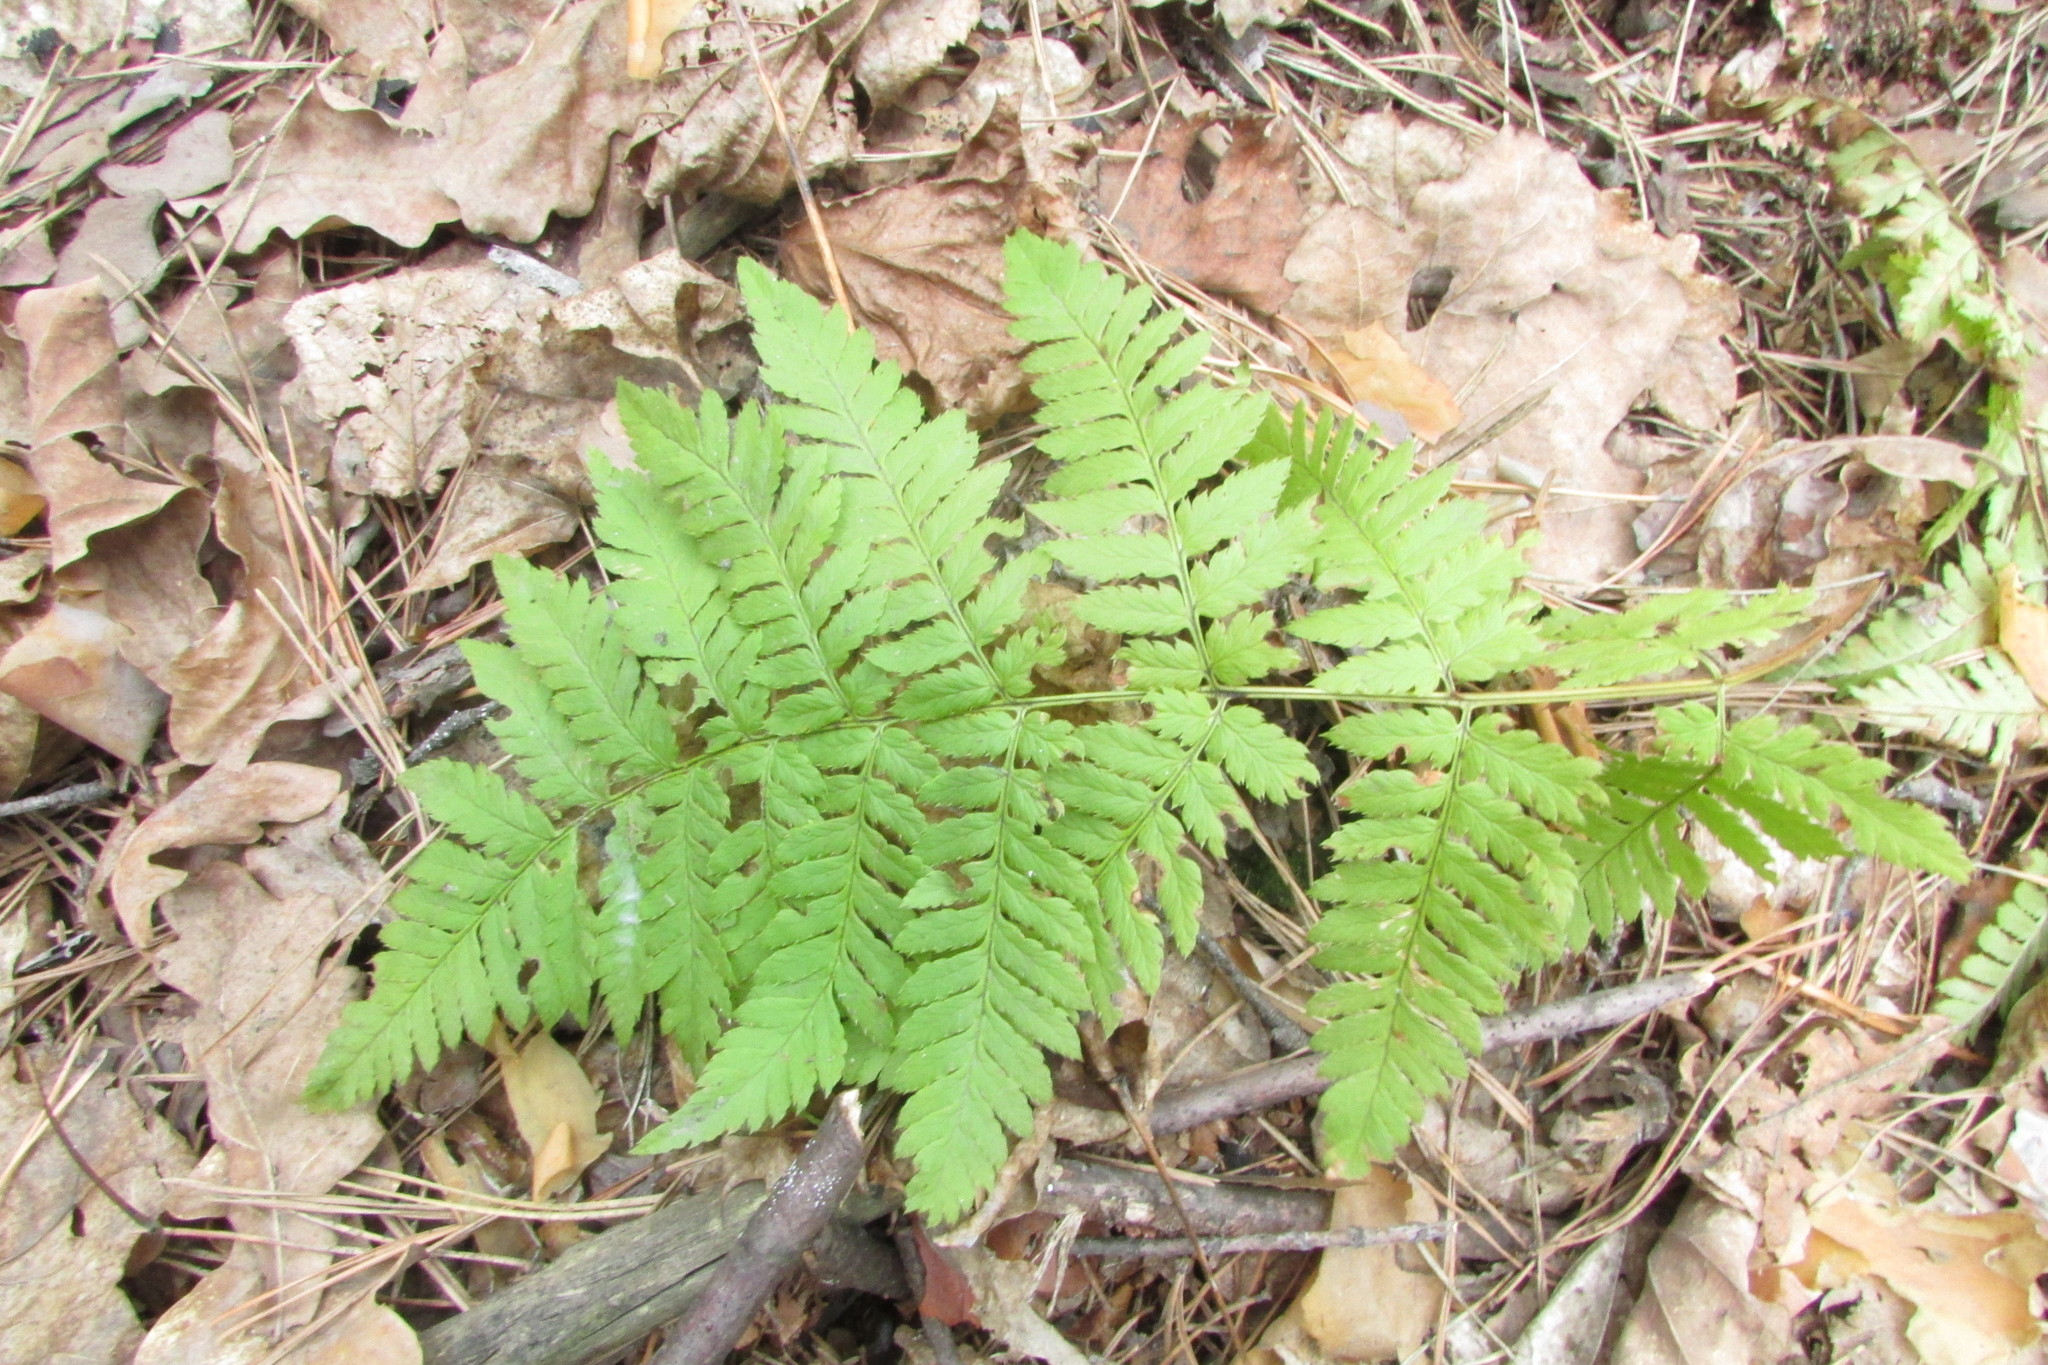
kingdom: Plantae
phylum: Tracheophyta
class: Polypodiopsida
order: Polypodiales
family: Dryopteridaceae
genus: Dryopteris
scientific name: Dryopteris carthusiana
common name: Narrow buckler-fern
